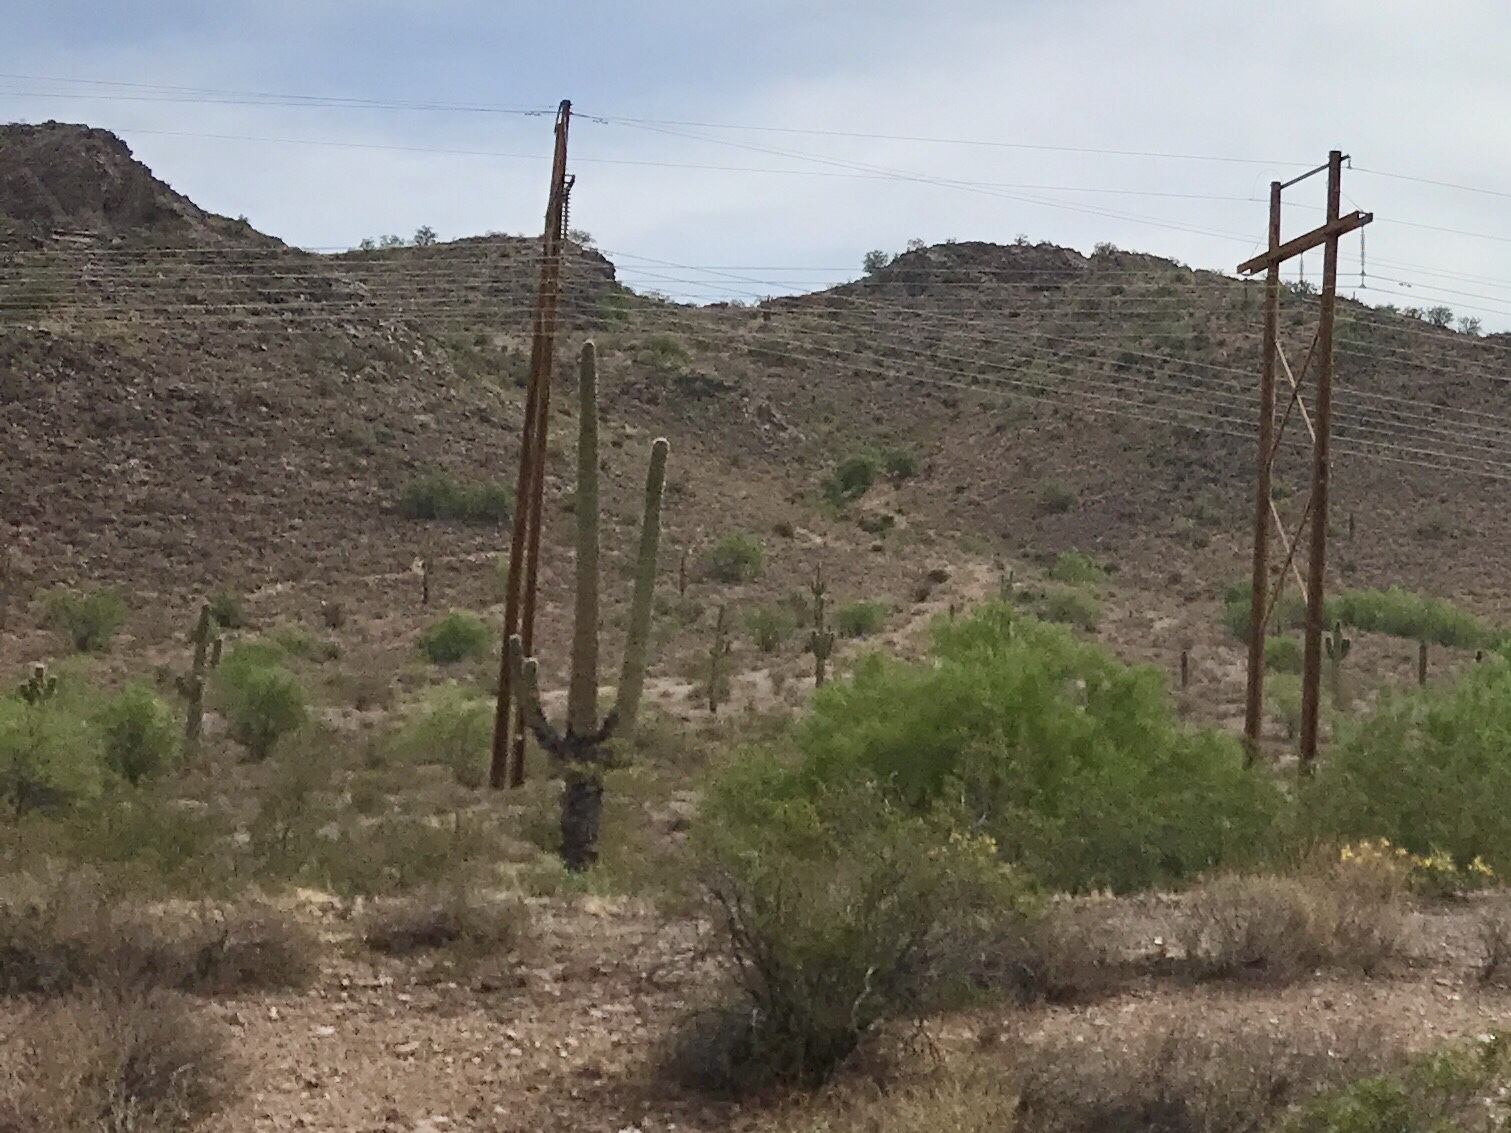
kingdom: Plantae
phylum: Tracheophyta
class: Magnoliopsida
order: Caryophyllales
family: Cactaceae
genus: Carnegiea
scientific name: Carnegiea gigantea
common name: Saguaro
